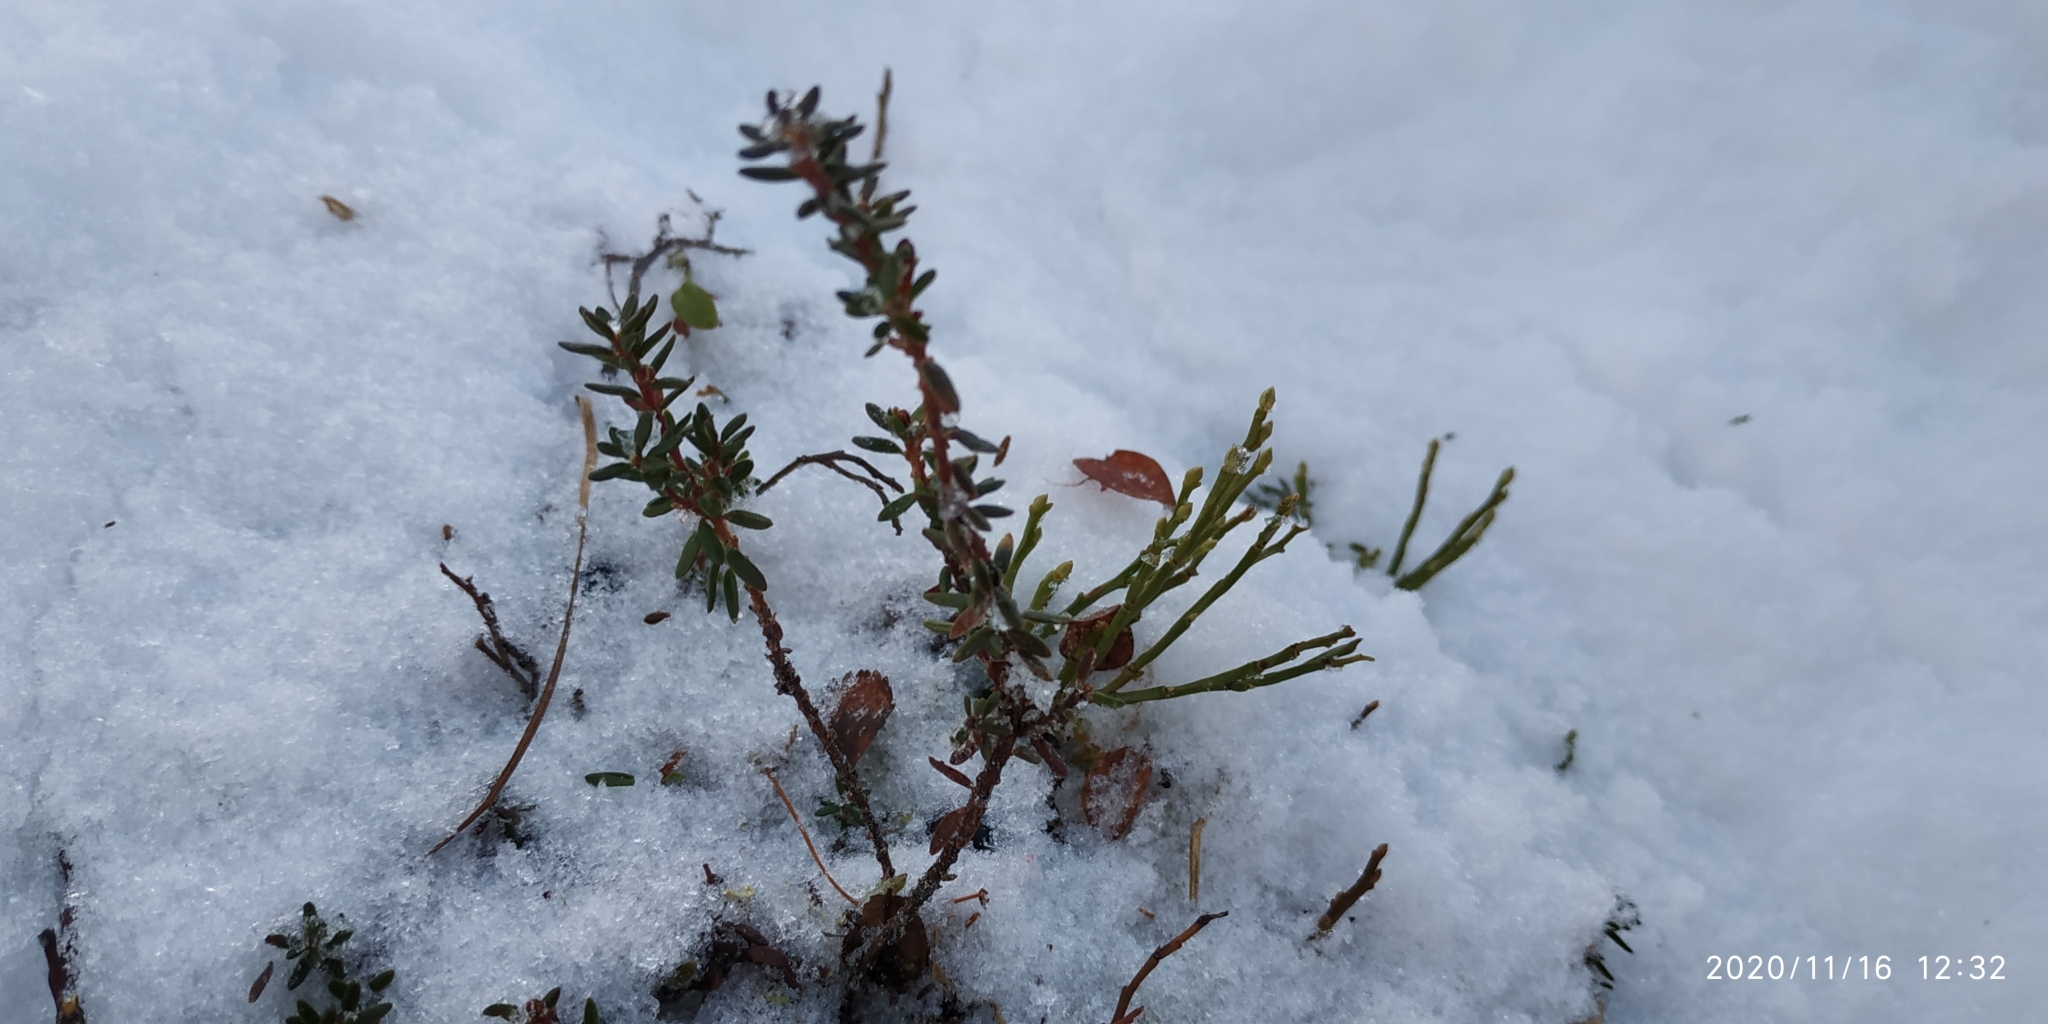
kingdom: Plantae
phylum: Tracheophyta
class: Magnoliopsida
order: Ericales
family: Ericaceae
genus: Empetrum
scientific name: Empetrum nigrum
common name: Black crowberry
